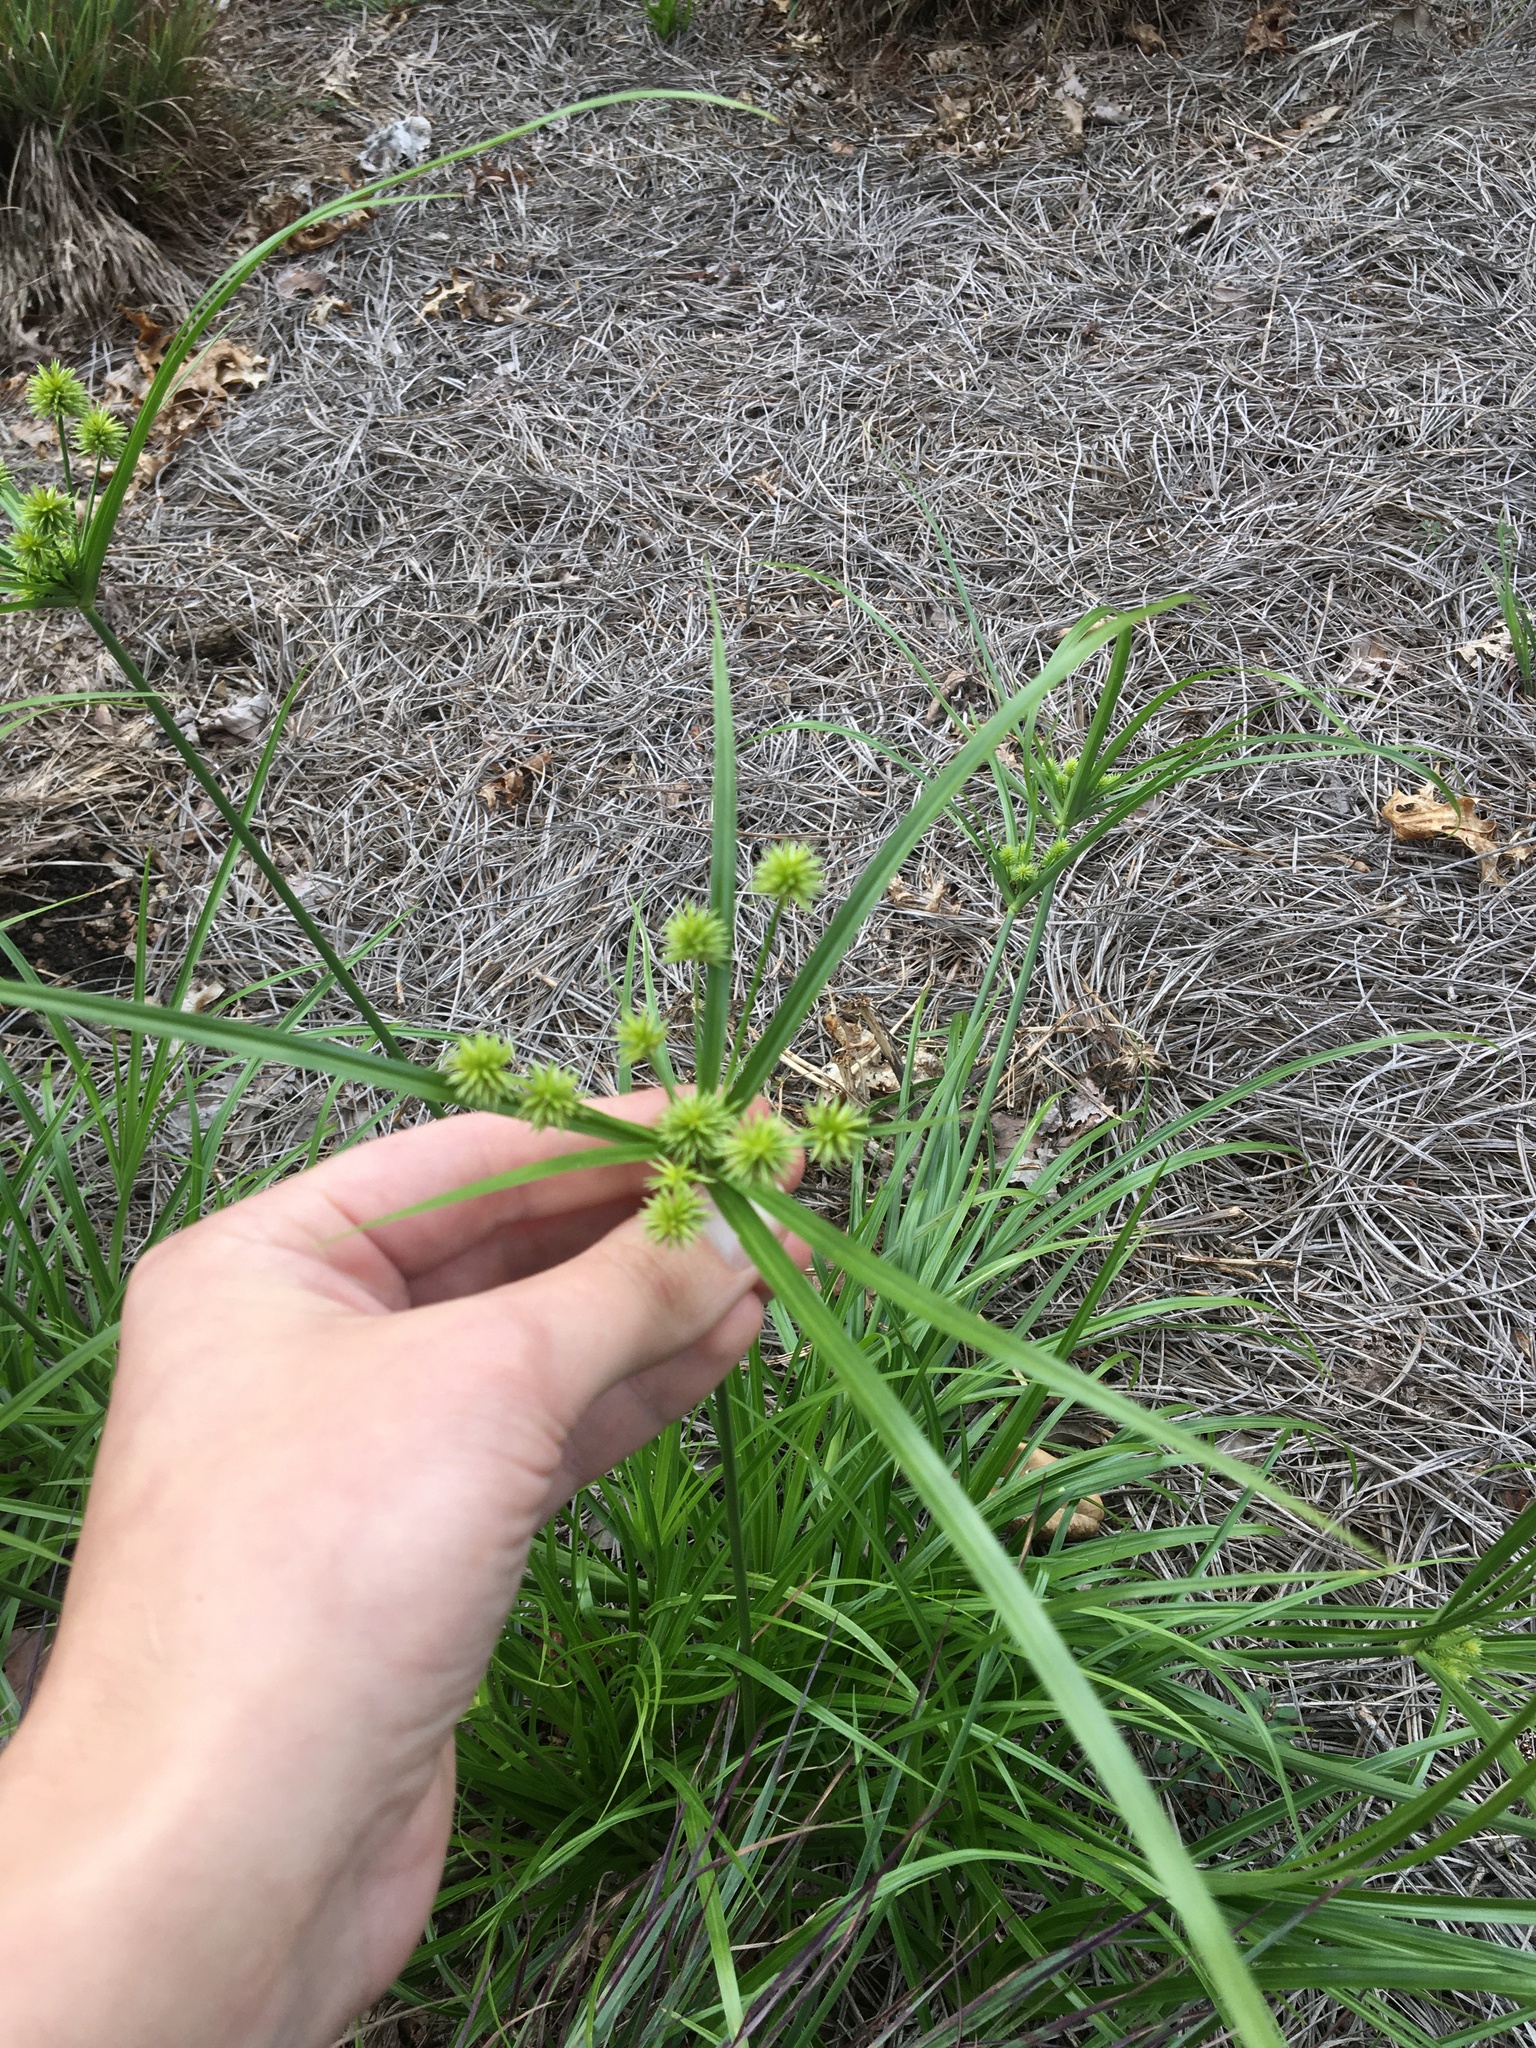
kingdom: Plantae
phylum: Tracheophyta
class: Liliopsida
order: Poales
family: Cyperaceae
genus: Cyperus
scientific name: Cyperus croceus
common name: Baldwin's flatsedge
